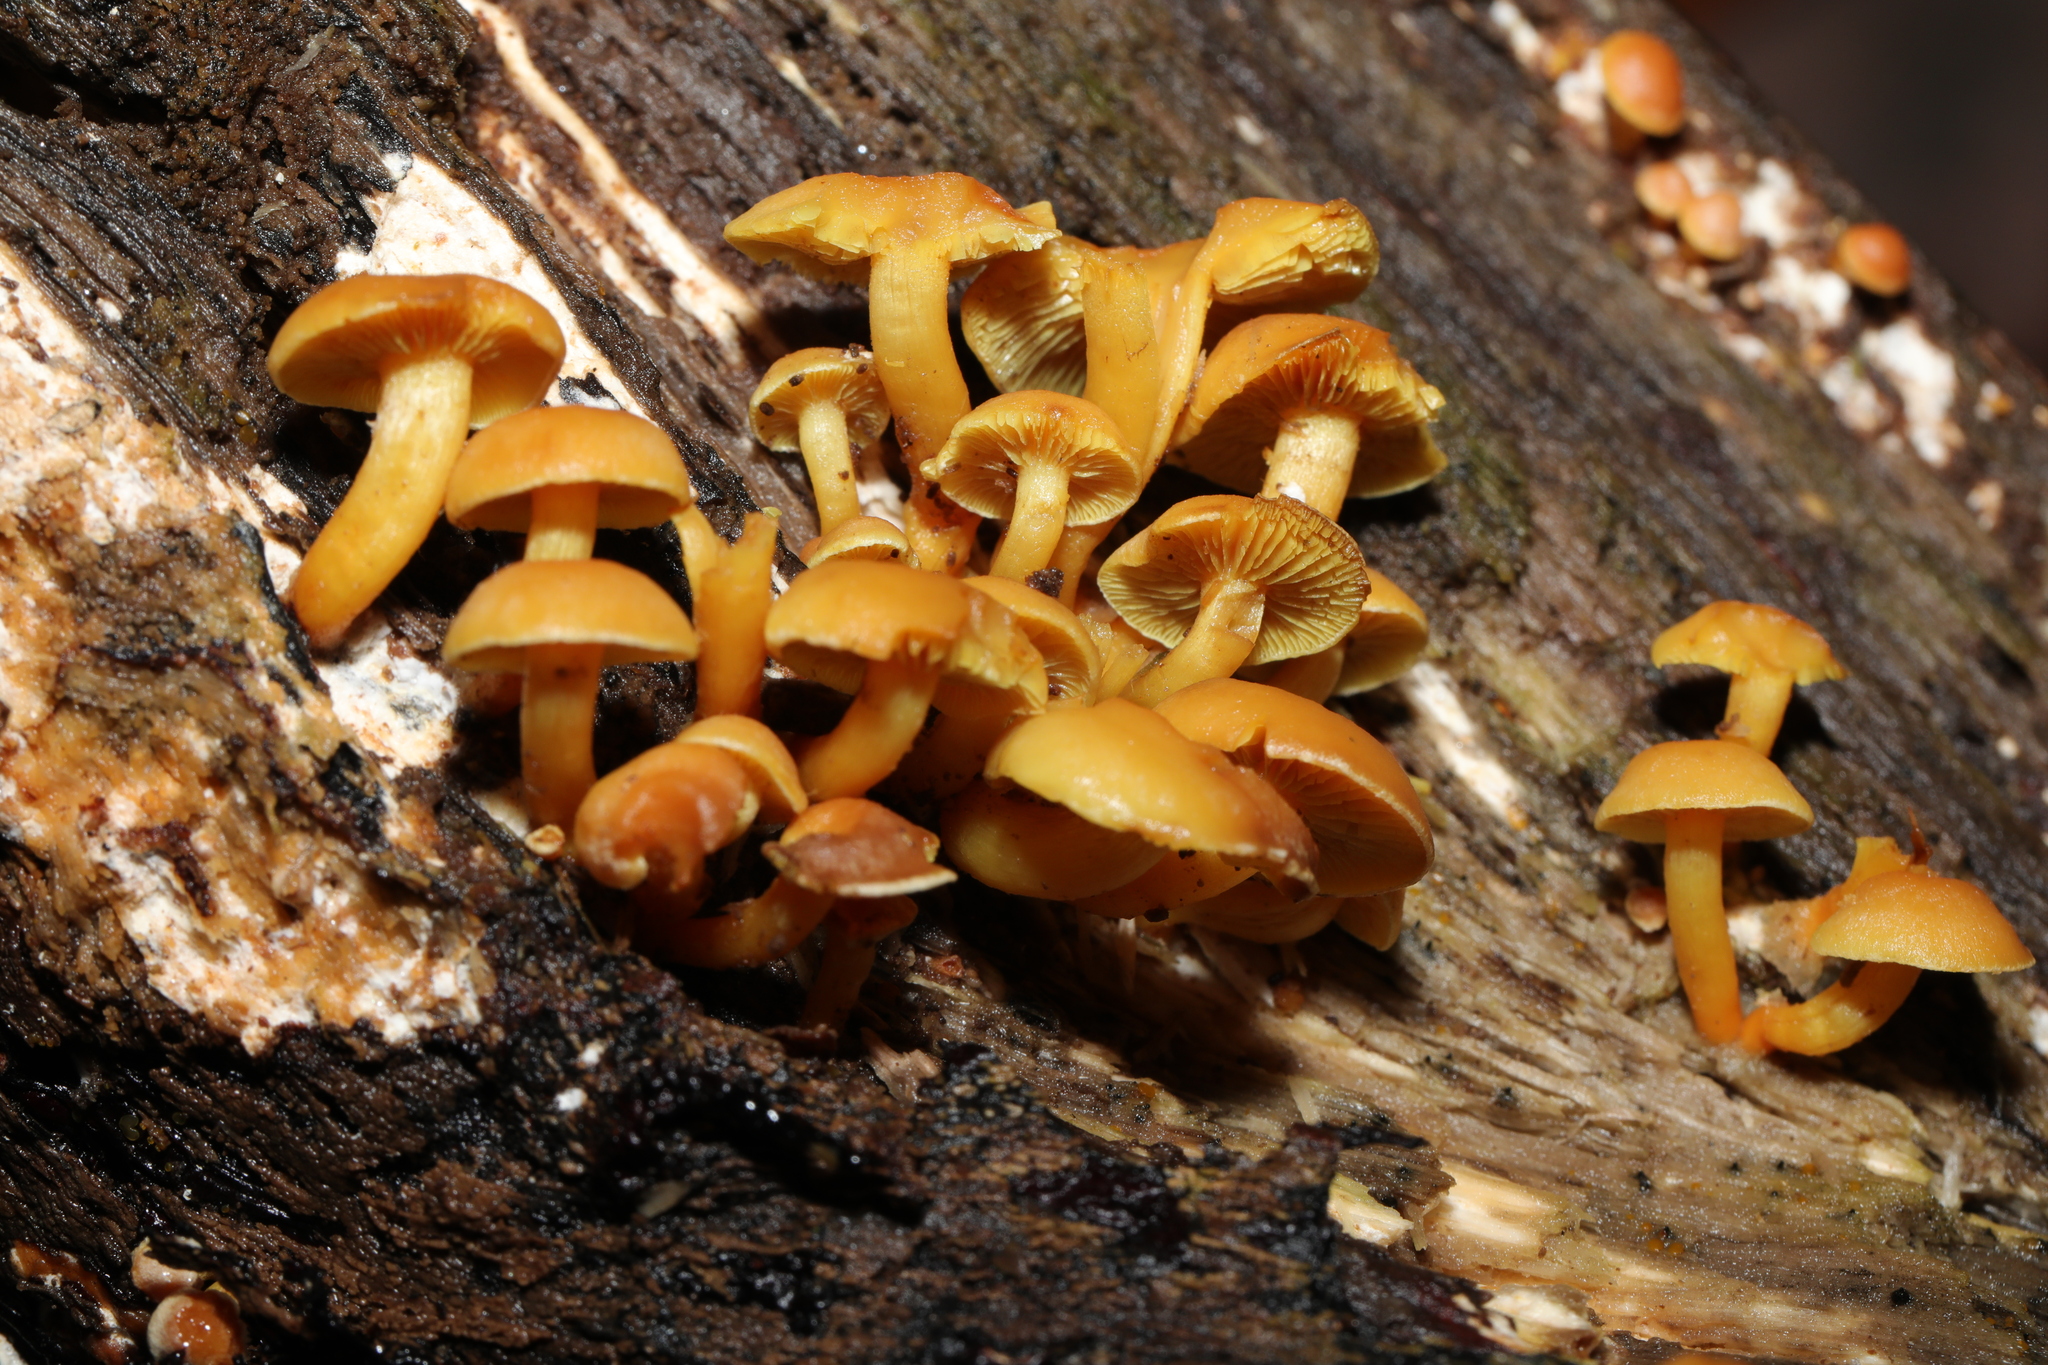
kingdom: Fungi
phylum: Basidiomycota
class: Agaricomycetes
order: Agaricales
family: Strophariaceae
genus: Hypholoma
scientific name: Hypholoma fasciculare
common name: Sulphur tuft
